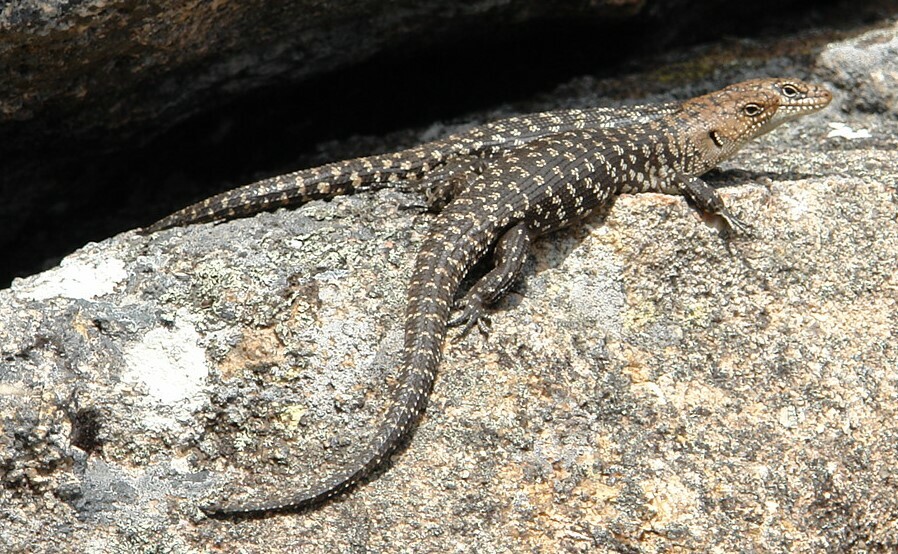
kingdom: Animalia
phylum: Chordata
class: Squamata
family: Scincidae
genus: Egernia
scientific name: Egernia cunninghami
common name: Cunningham's skink
